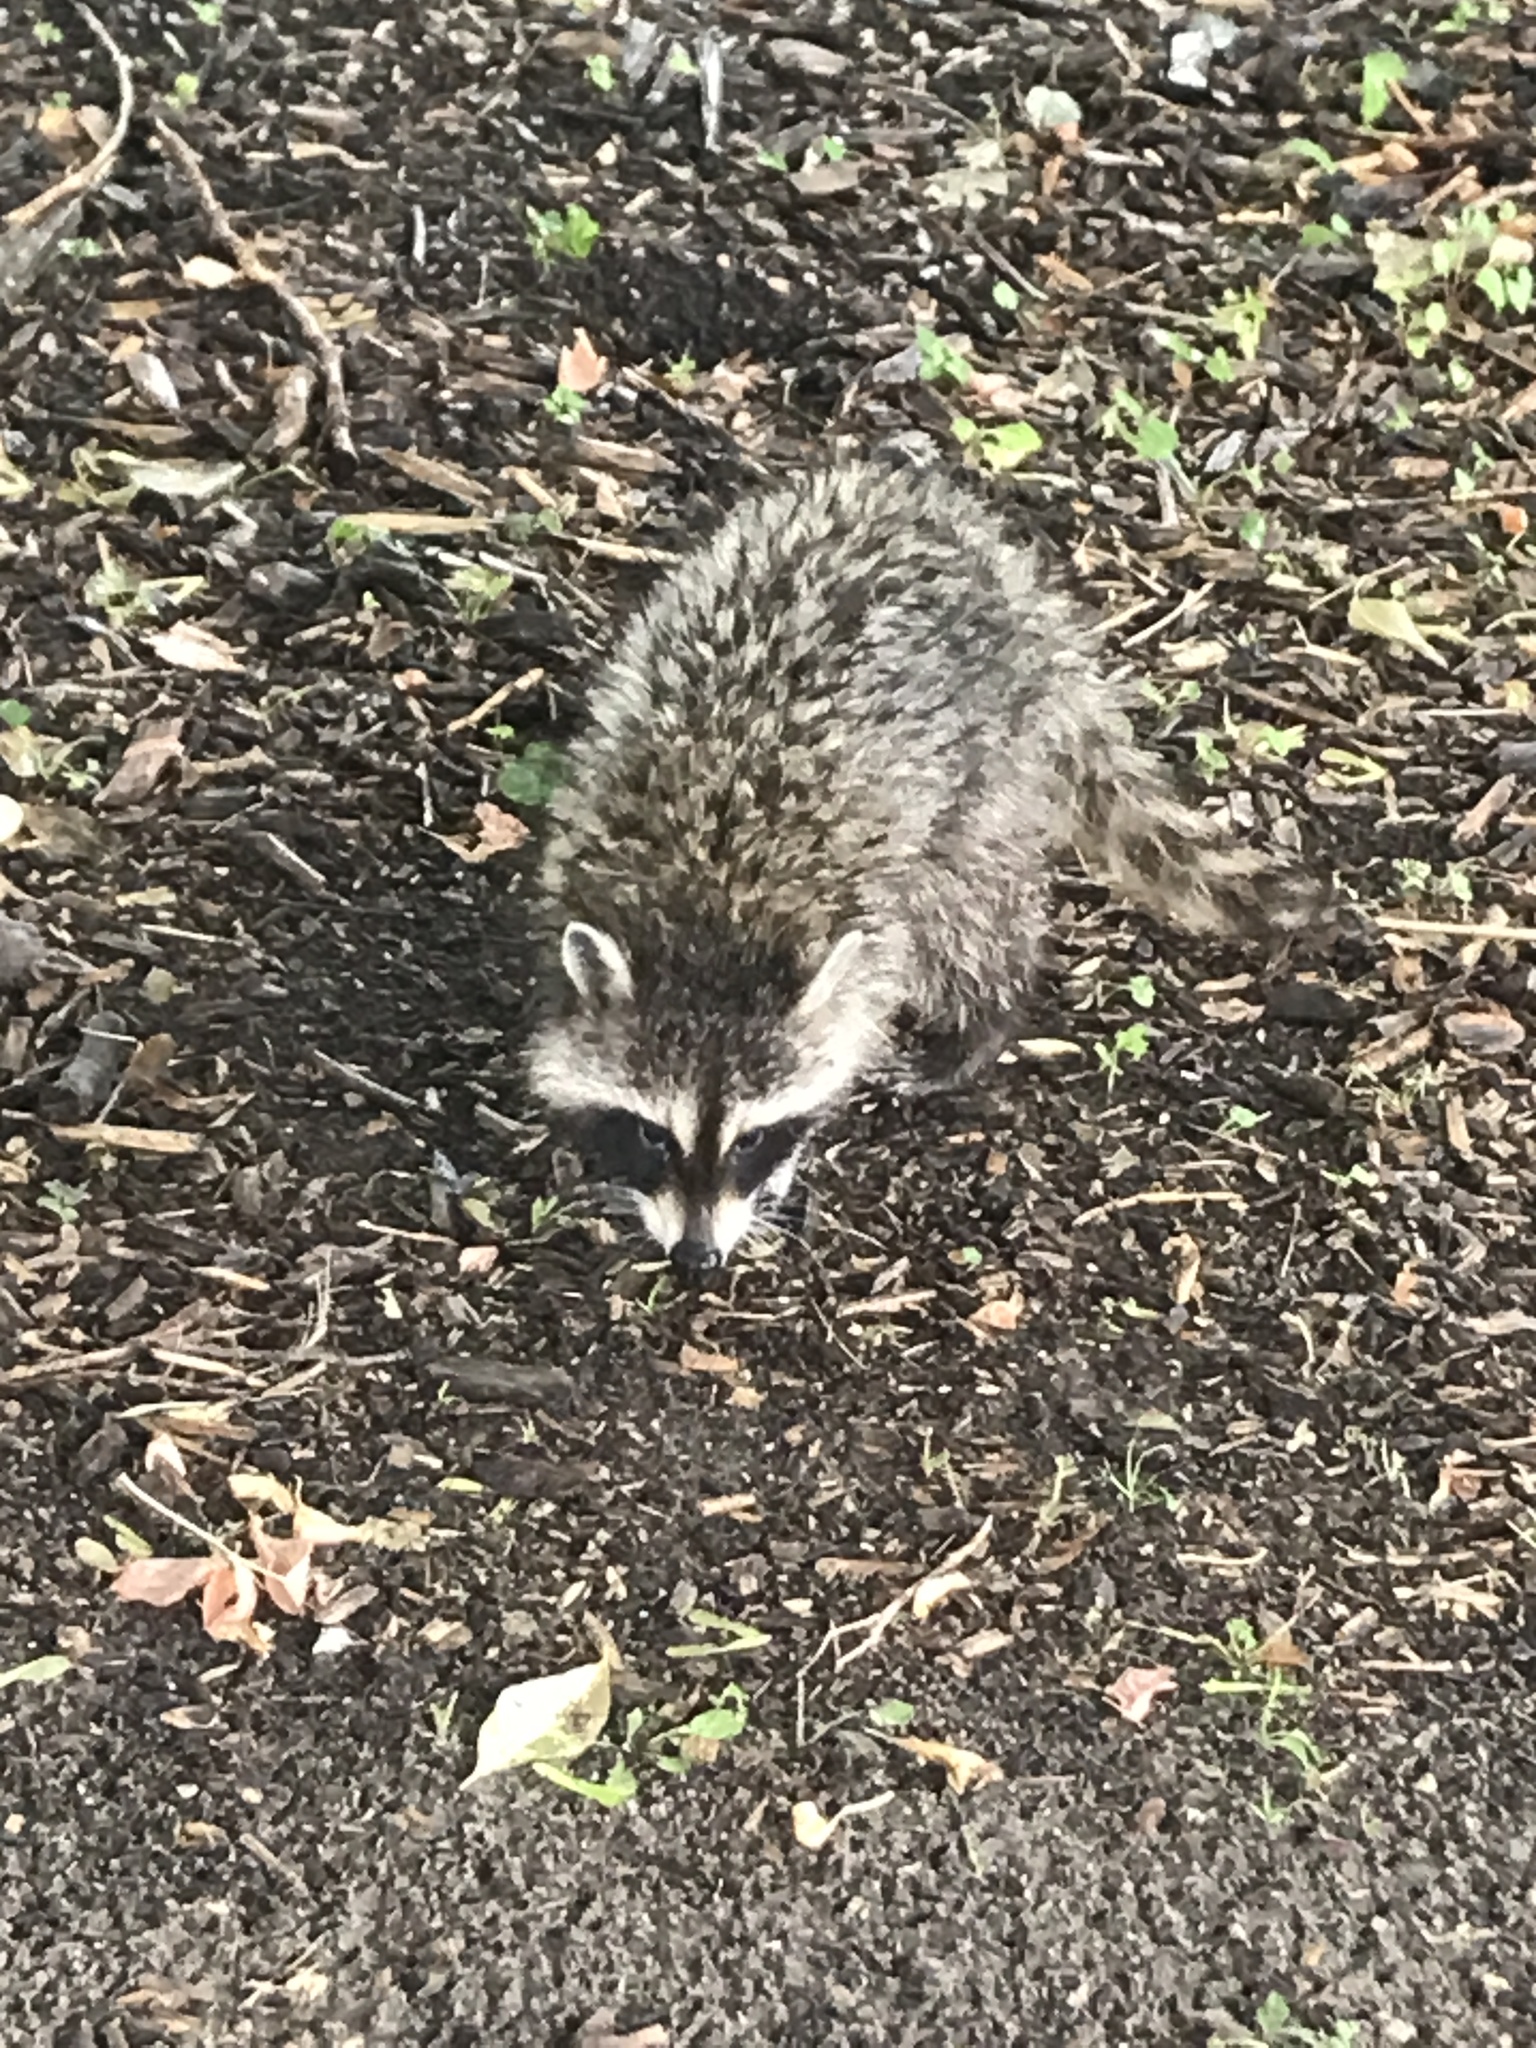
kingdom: Animalia
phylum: Chordata
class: Mammalia
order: Carnivora
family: Procyonidae
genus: Procyon
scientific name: Procyon lotor
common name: Raccoon
